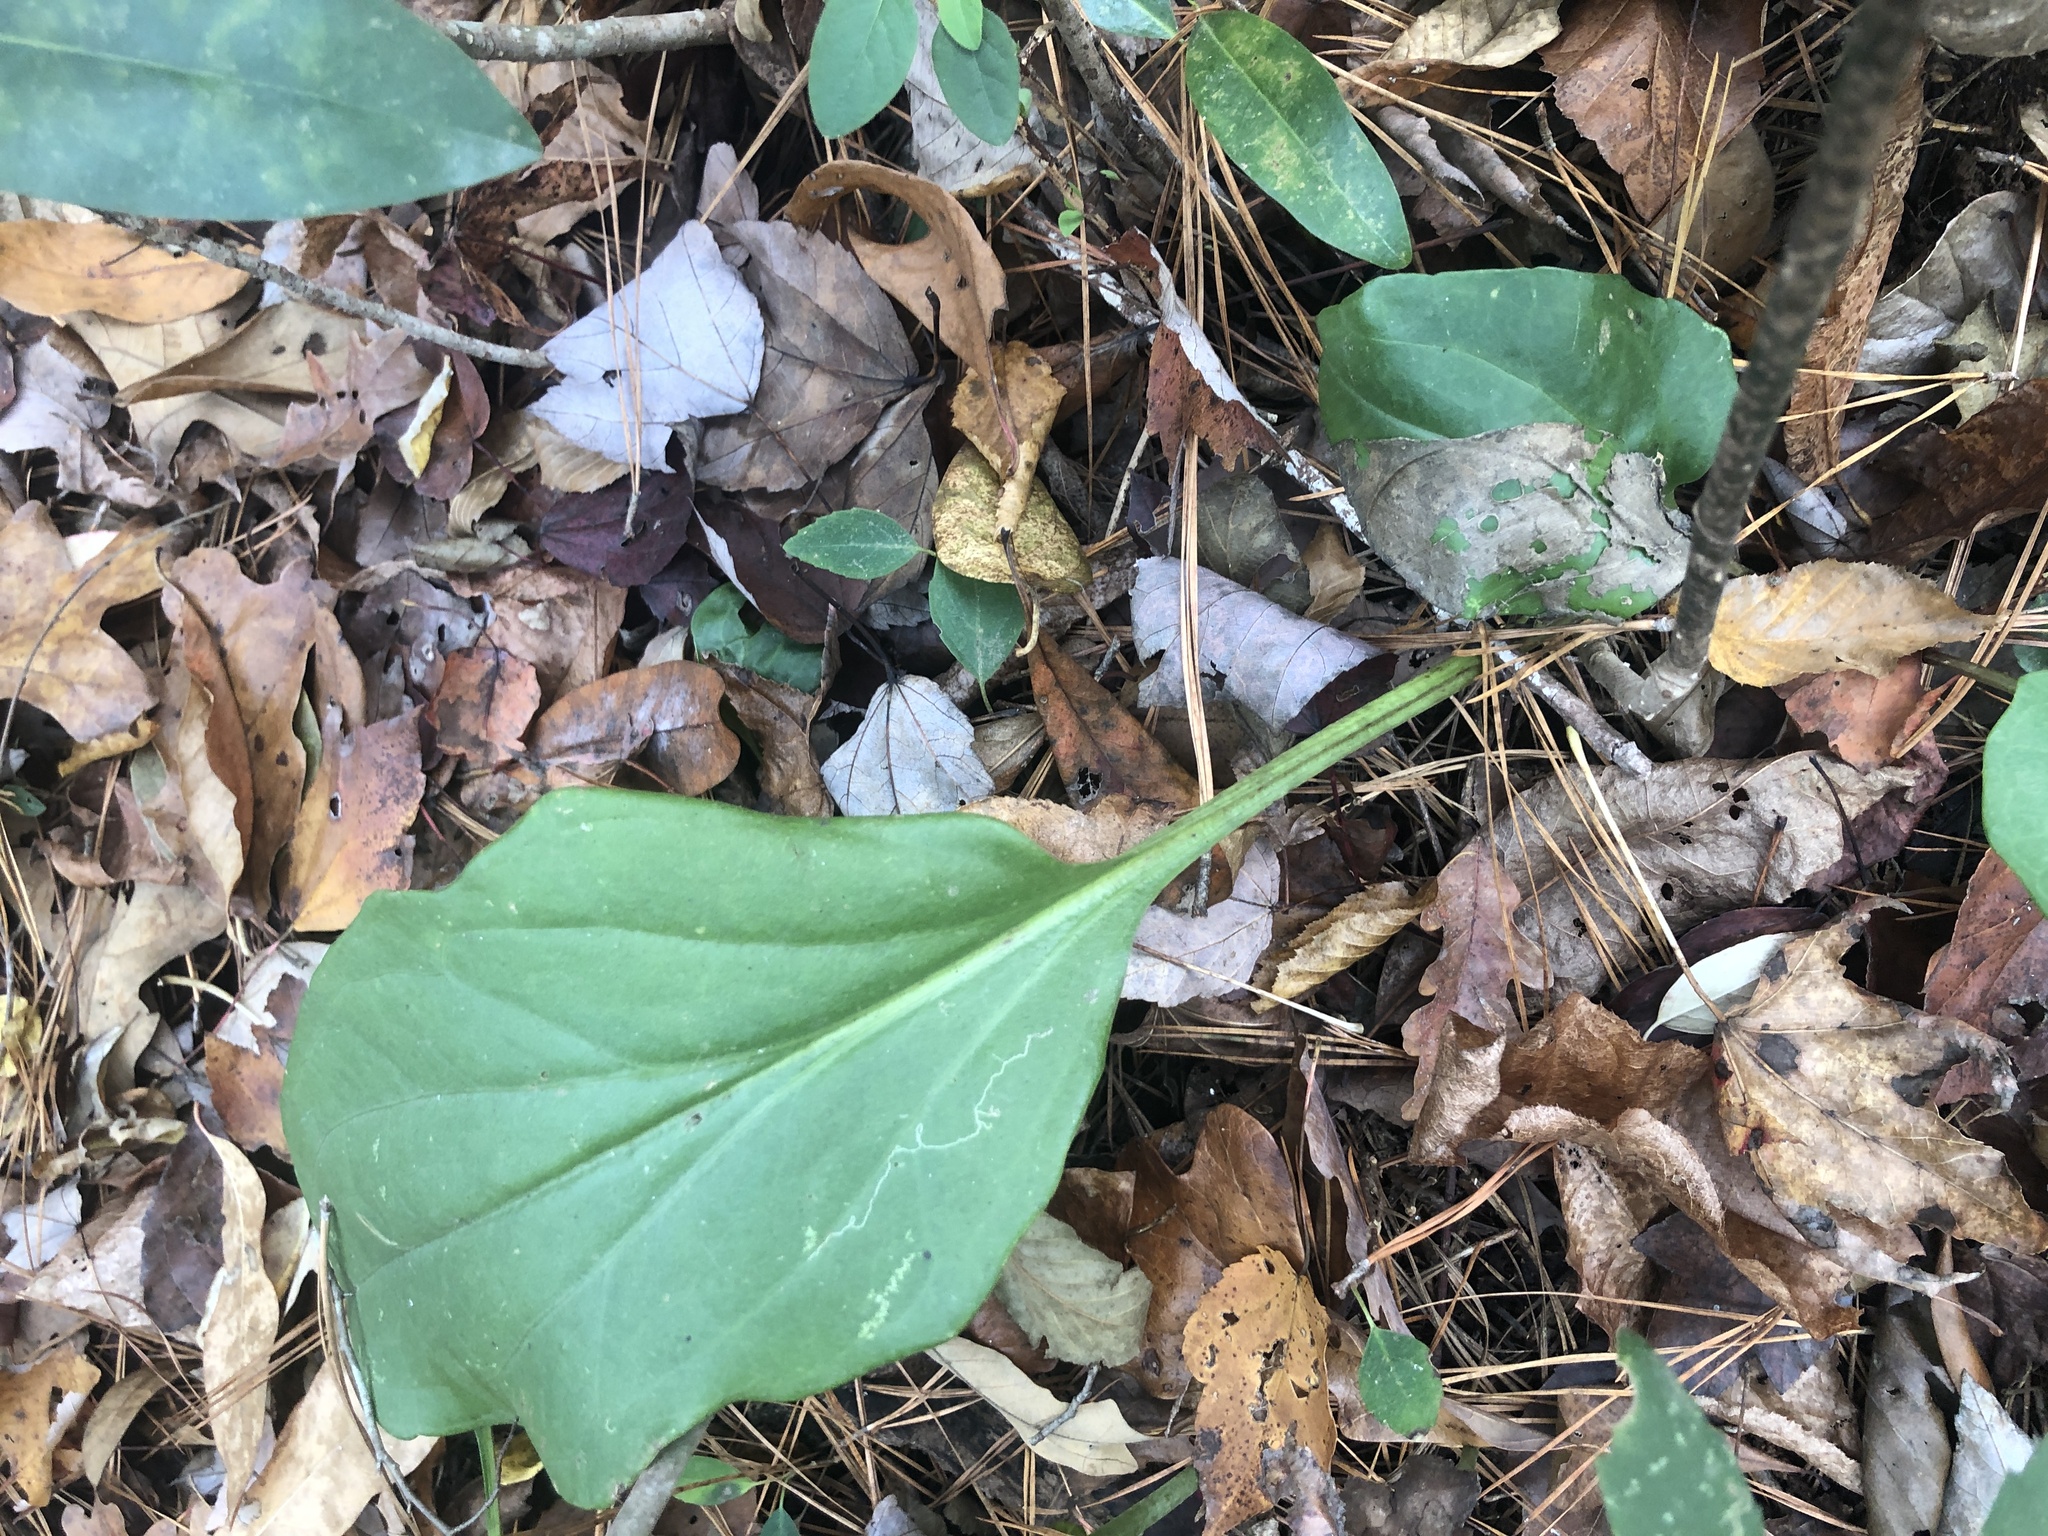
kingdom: Plantae
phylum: Tracheophyta
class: Magnoliopsida
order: Asterales
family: Asteraceae
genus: Arnoglossum
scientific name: Arnoglossum ovatum
